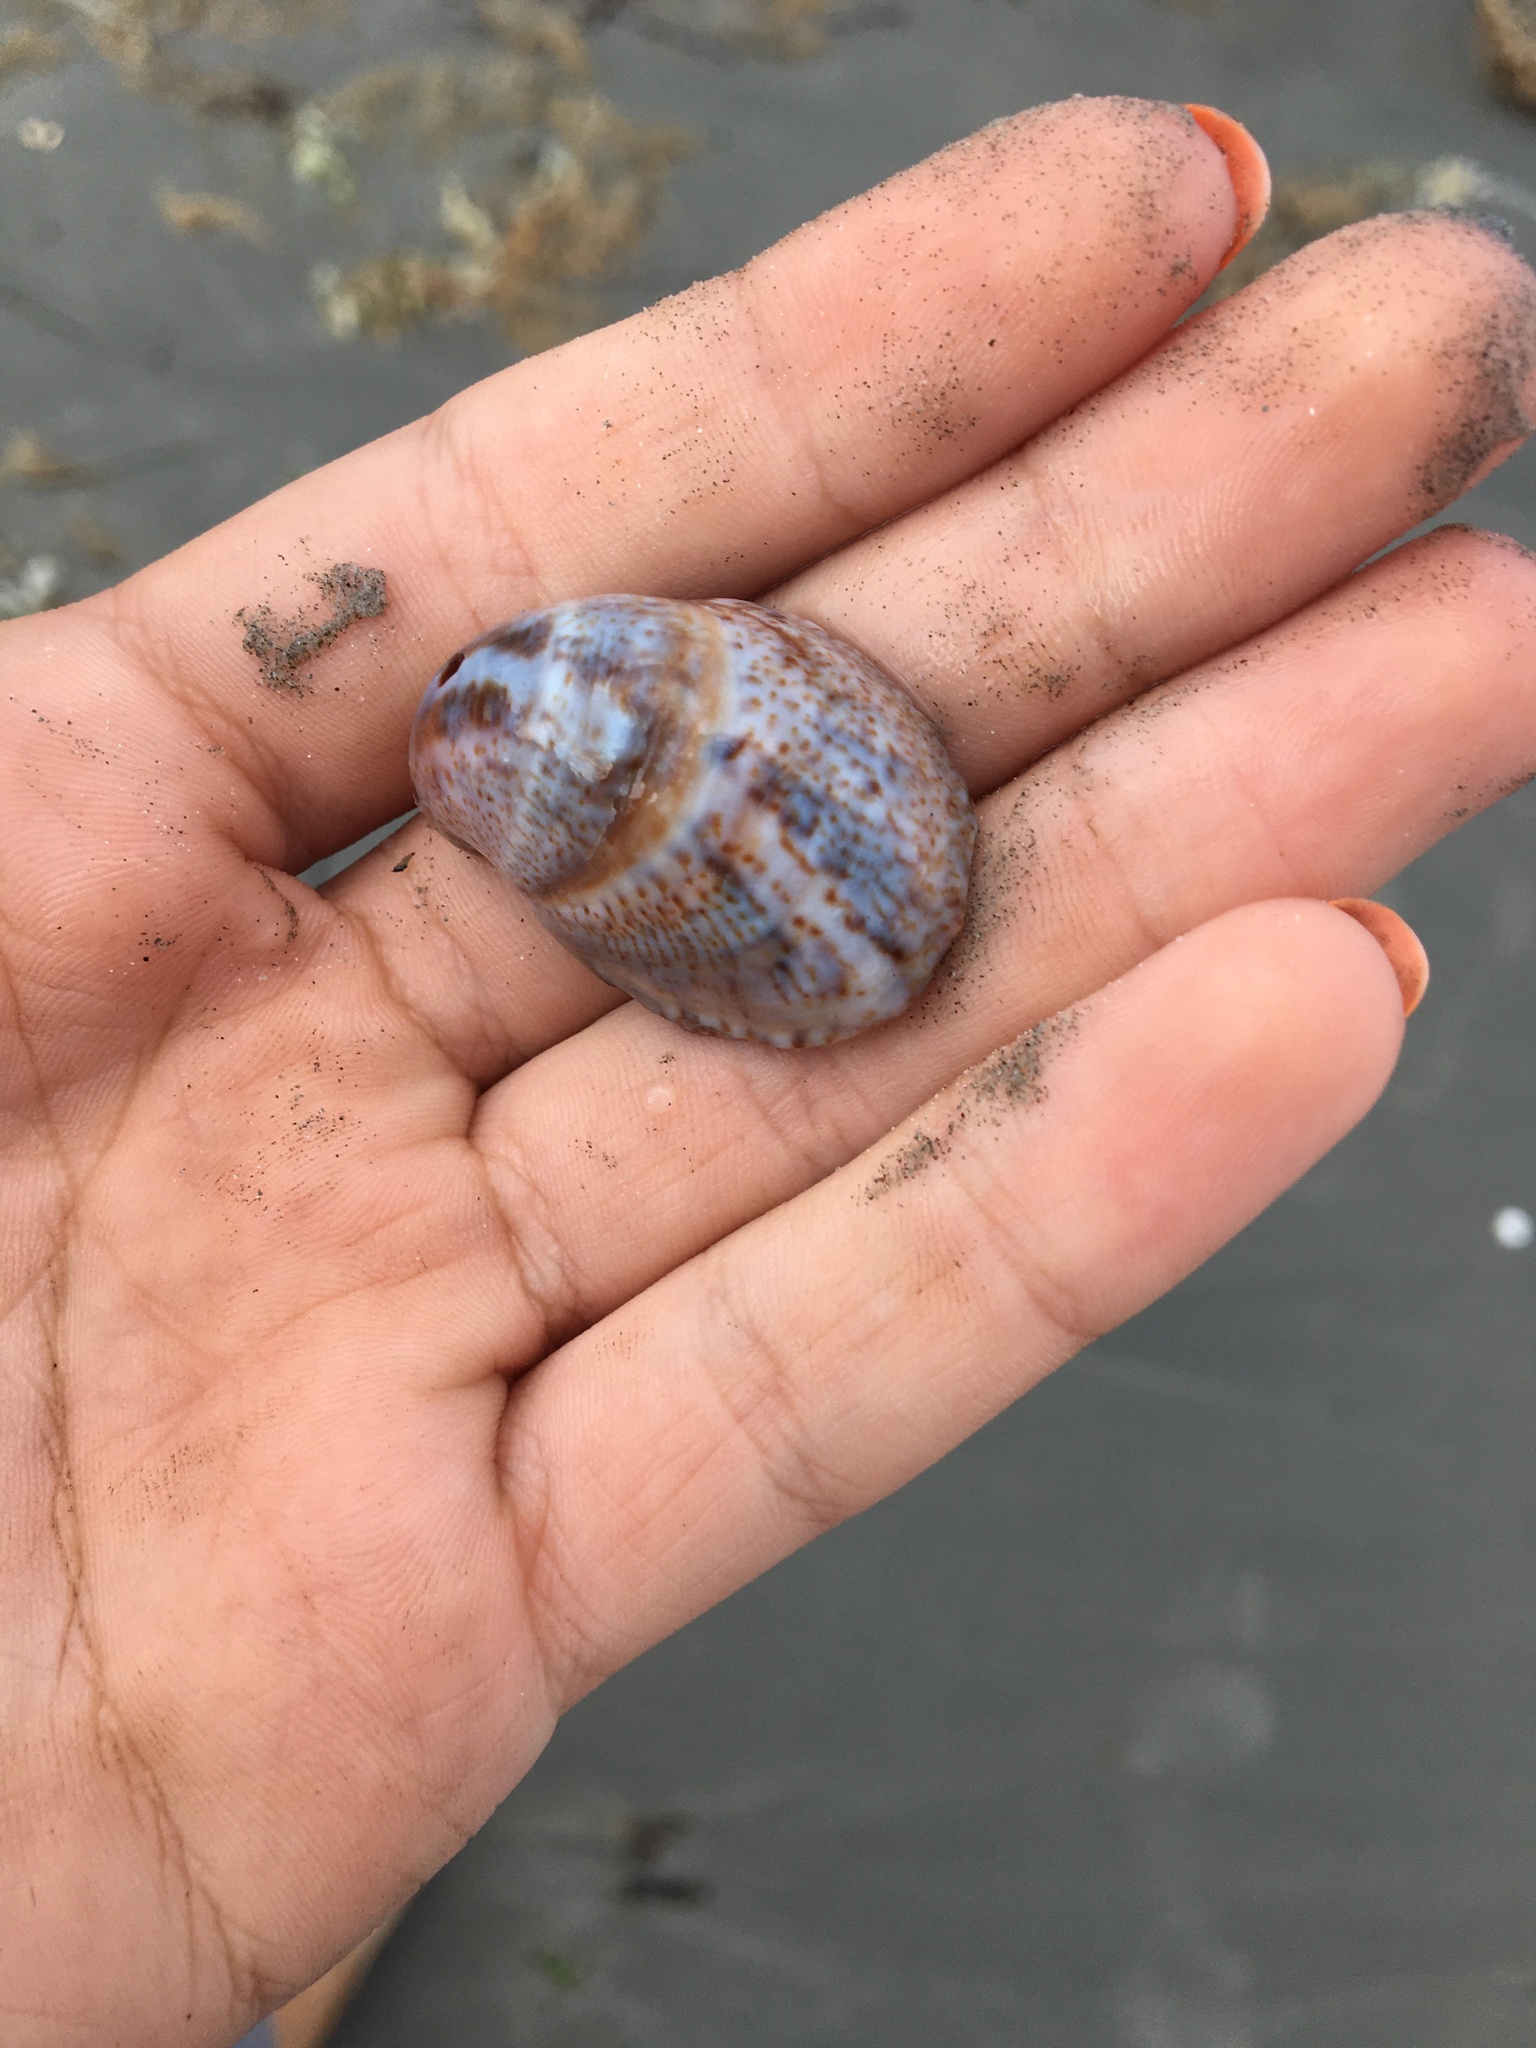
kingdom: Animalia
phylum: Mollusca
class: Gastropoda
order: Littorinimorpha
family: Calyptraeidae
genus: Crepidula
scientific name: Crepidula fornicata
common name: Slipper limpet
